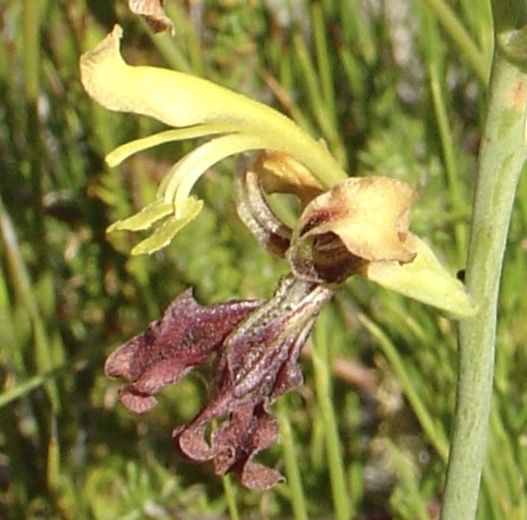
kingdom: Plantae
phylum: Tracheophyta
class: Liliopsida
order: Asparagales
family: Iridaceae
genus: Tritoniopsis
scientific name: Tritoniopsis parviflora
